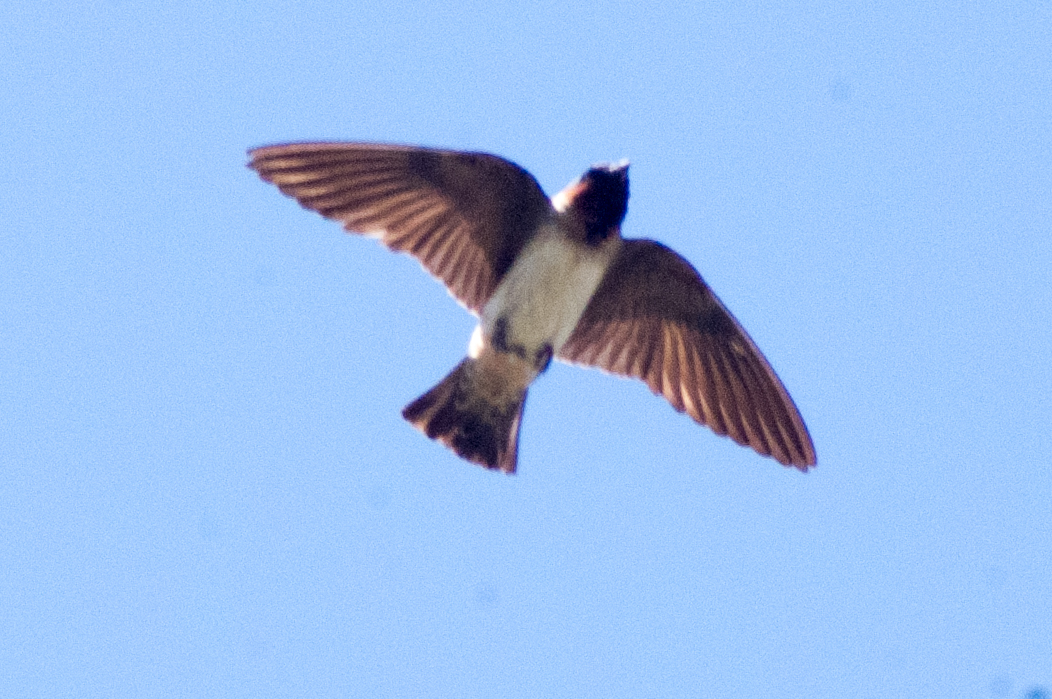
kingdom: Animalia
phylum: Chordata
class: Aves
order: Passeriformes
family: Hirundinidae
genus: Petrochelidon
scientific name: Petrochelidon pyrrhonota
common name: American cliff swallow
